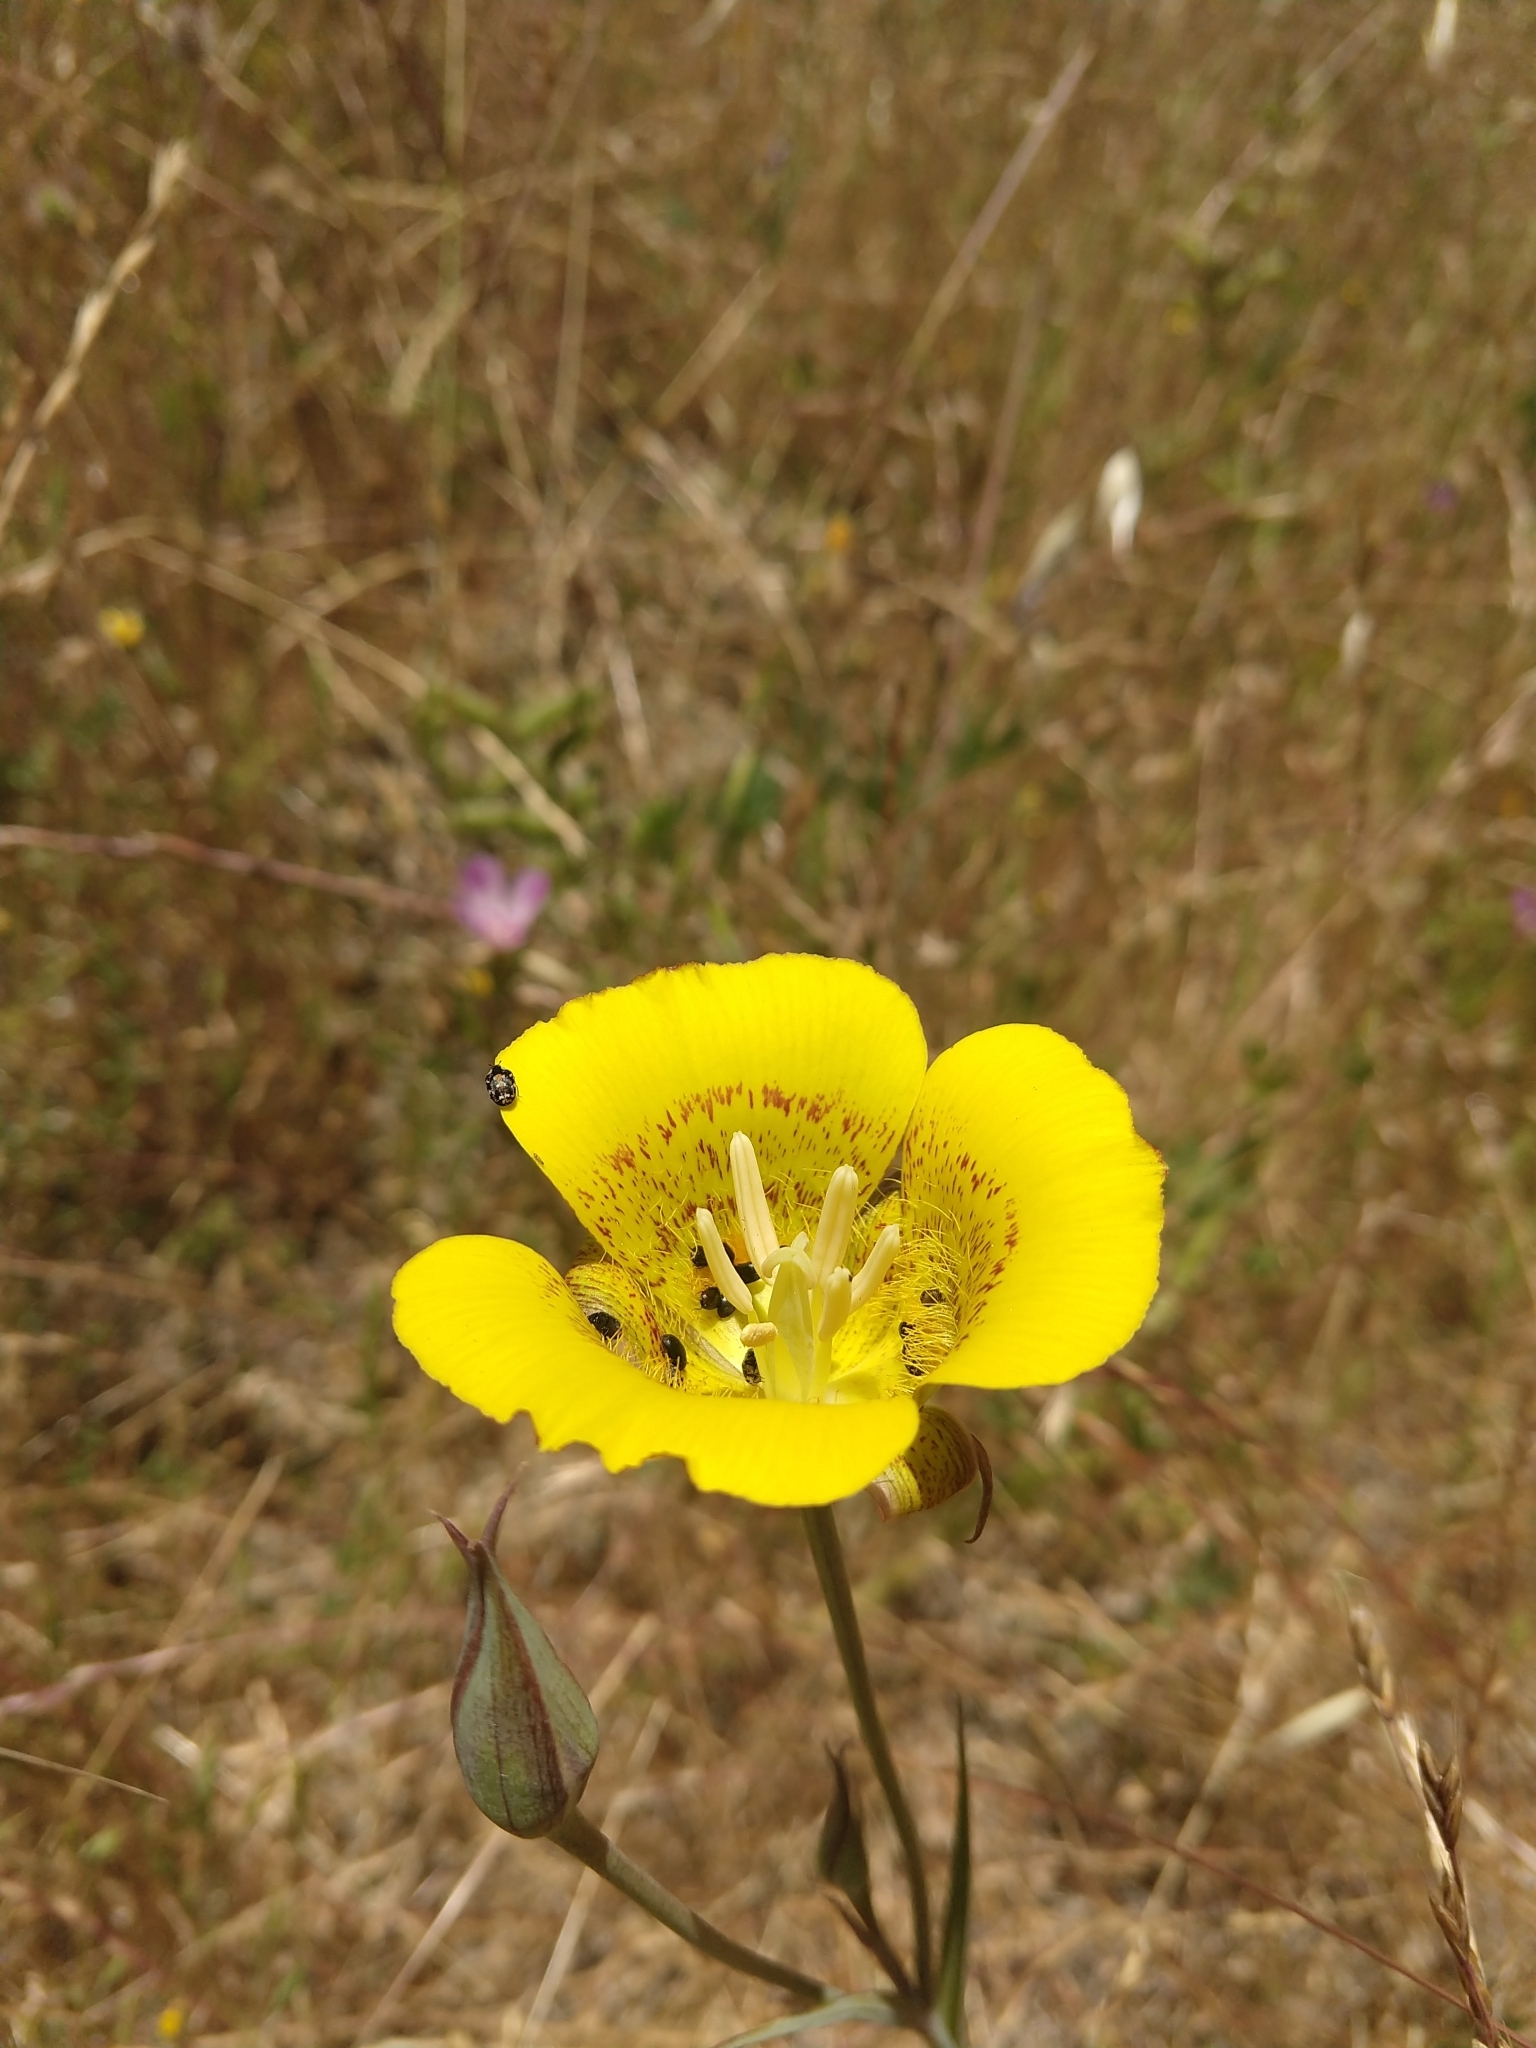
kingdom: Plantae
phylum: Tracheophyta
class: Liliopsida
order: Liliales
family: Liliaceae
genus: Calochortus
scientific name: Calochortus luteus
